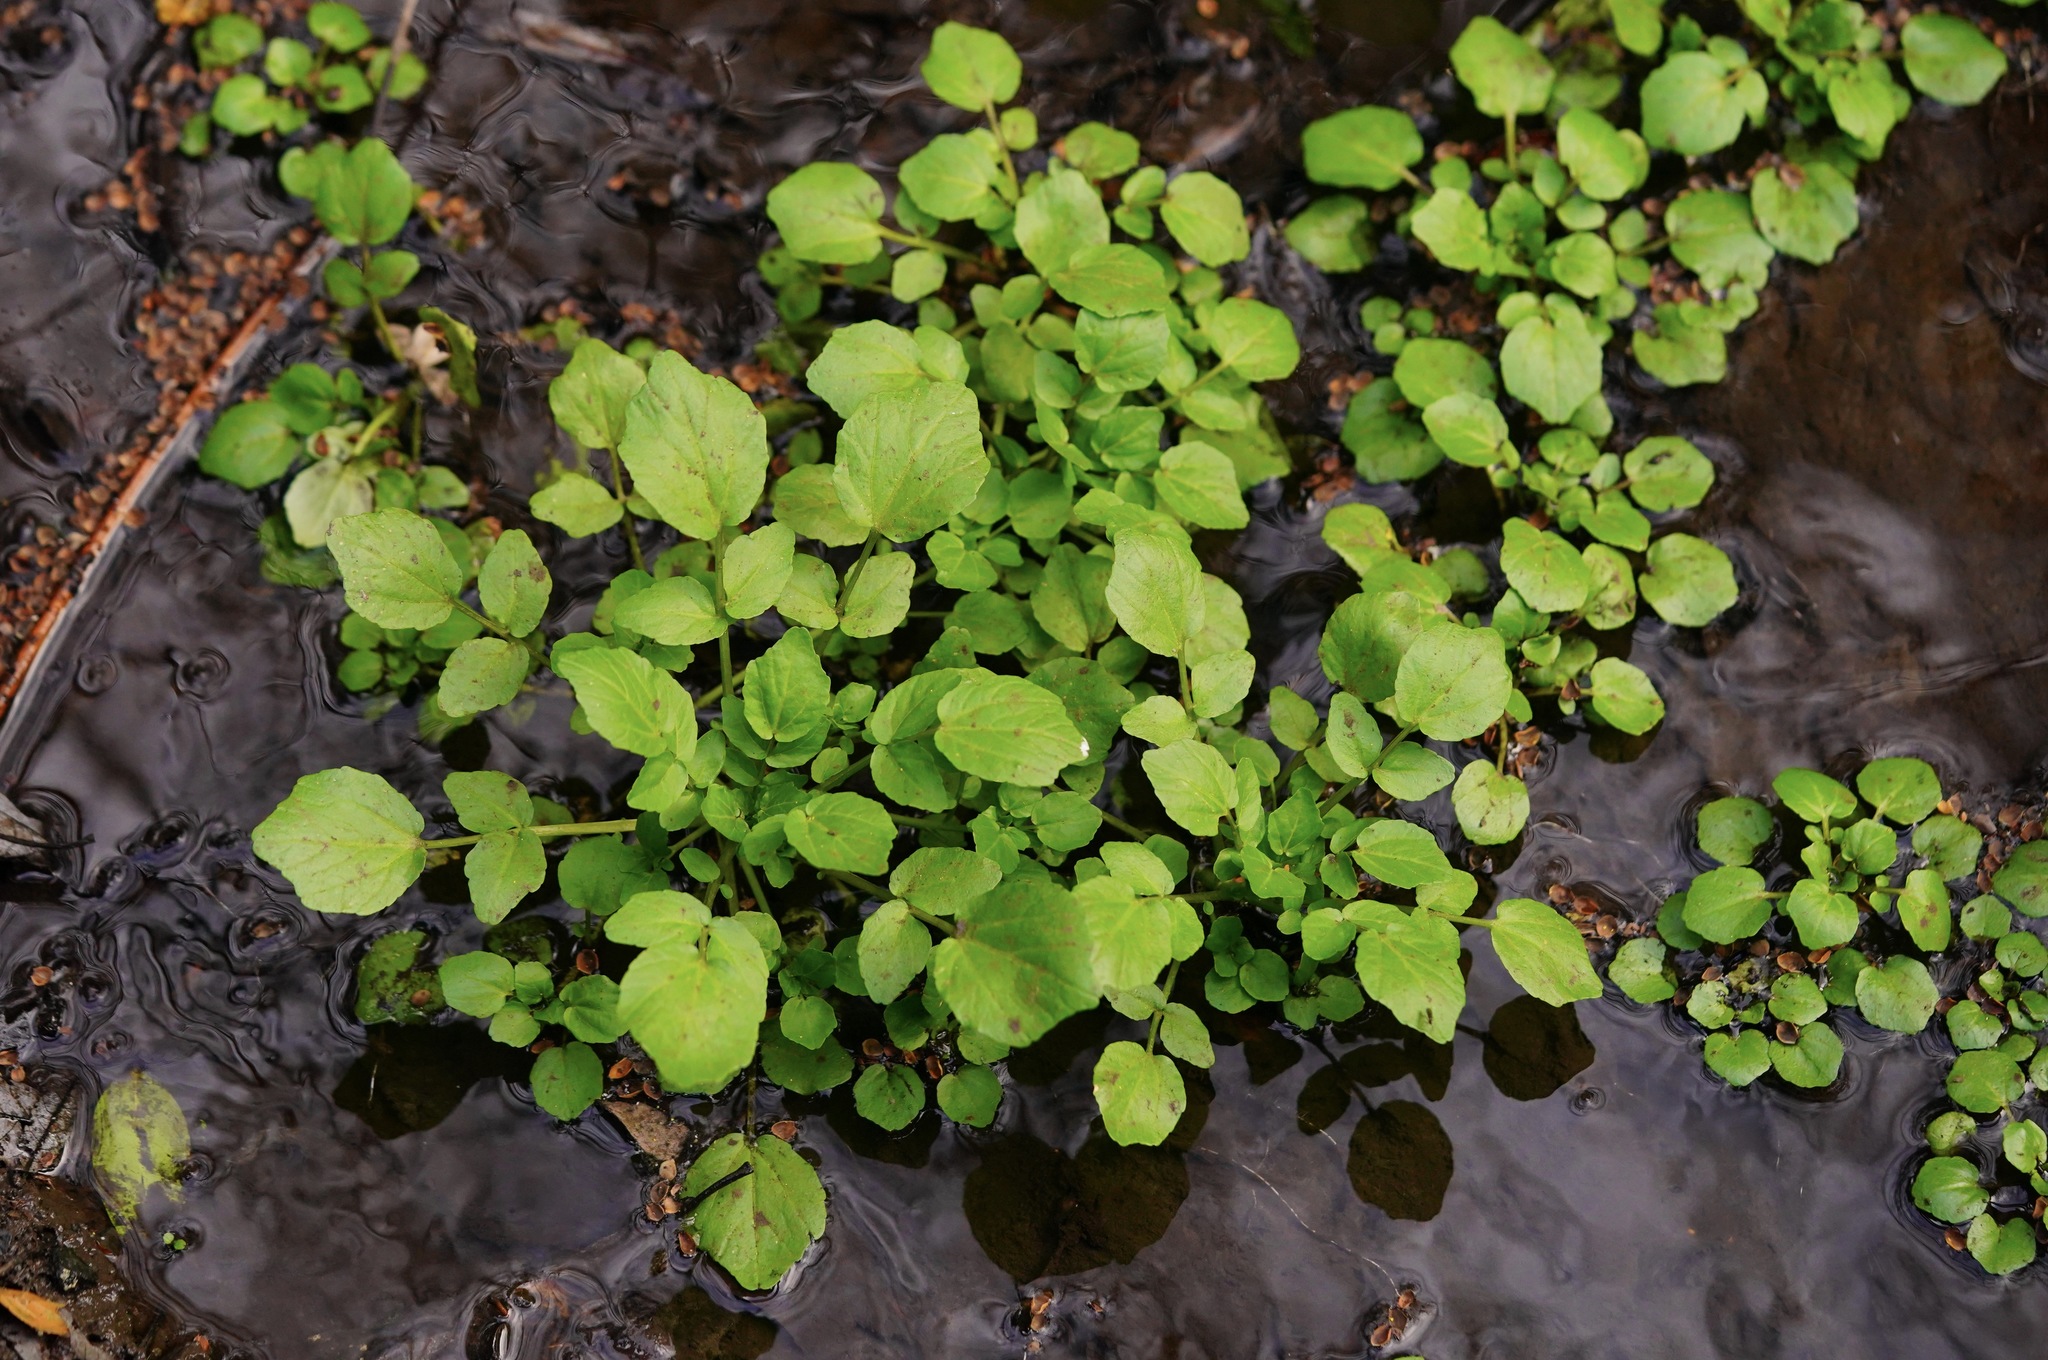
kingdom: Plantae
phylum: Tracheophyta
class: Magnoliopsida
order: Brassicales
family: Brassicaceae
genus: Nasturtium
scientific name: Nasturtium officinale
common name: Watercress
